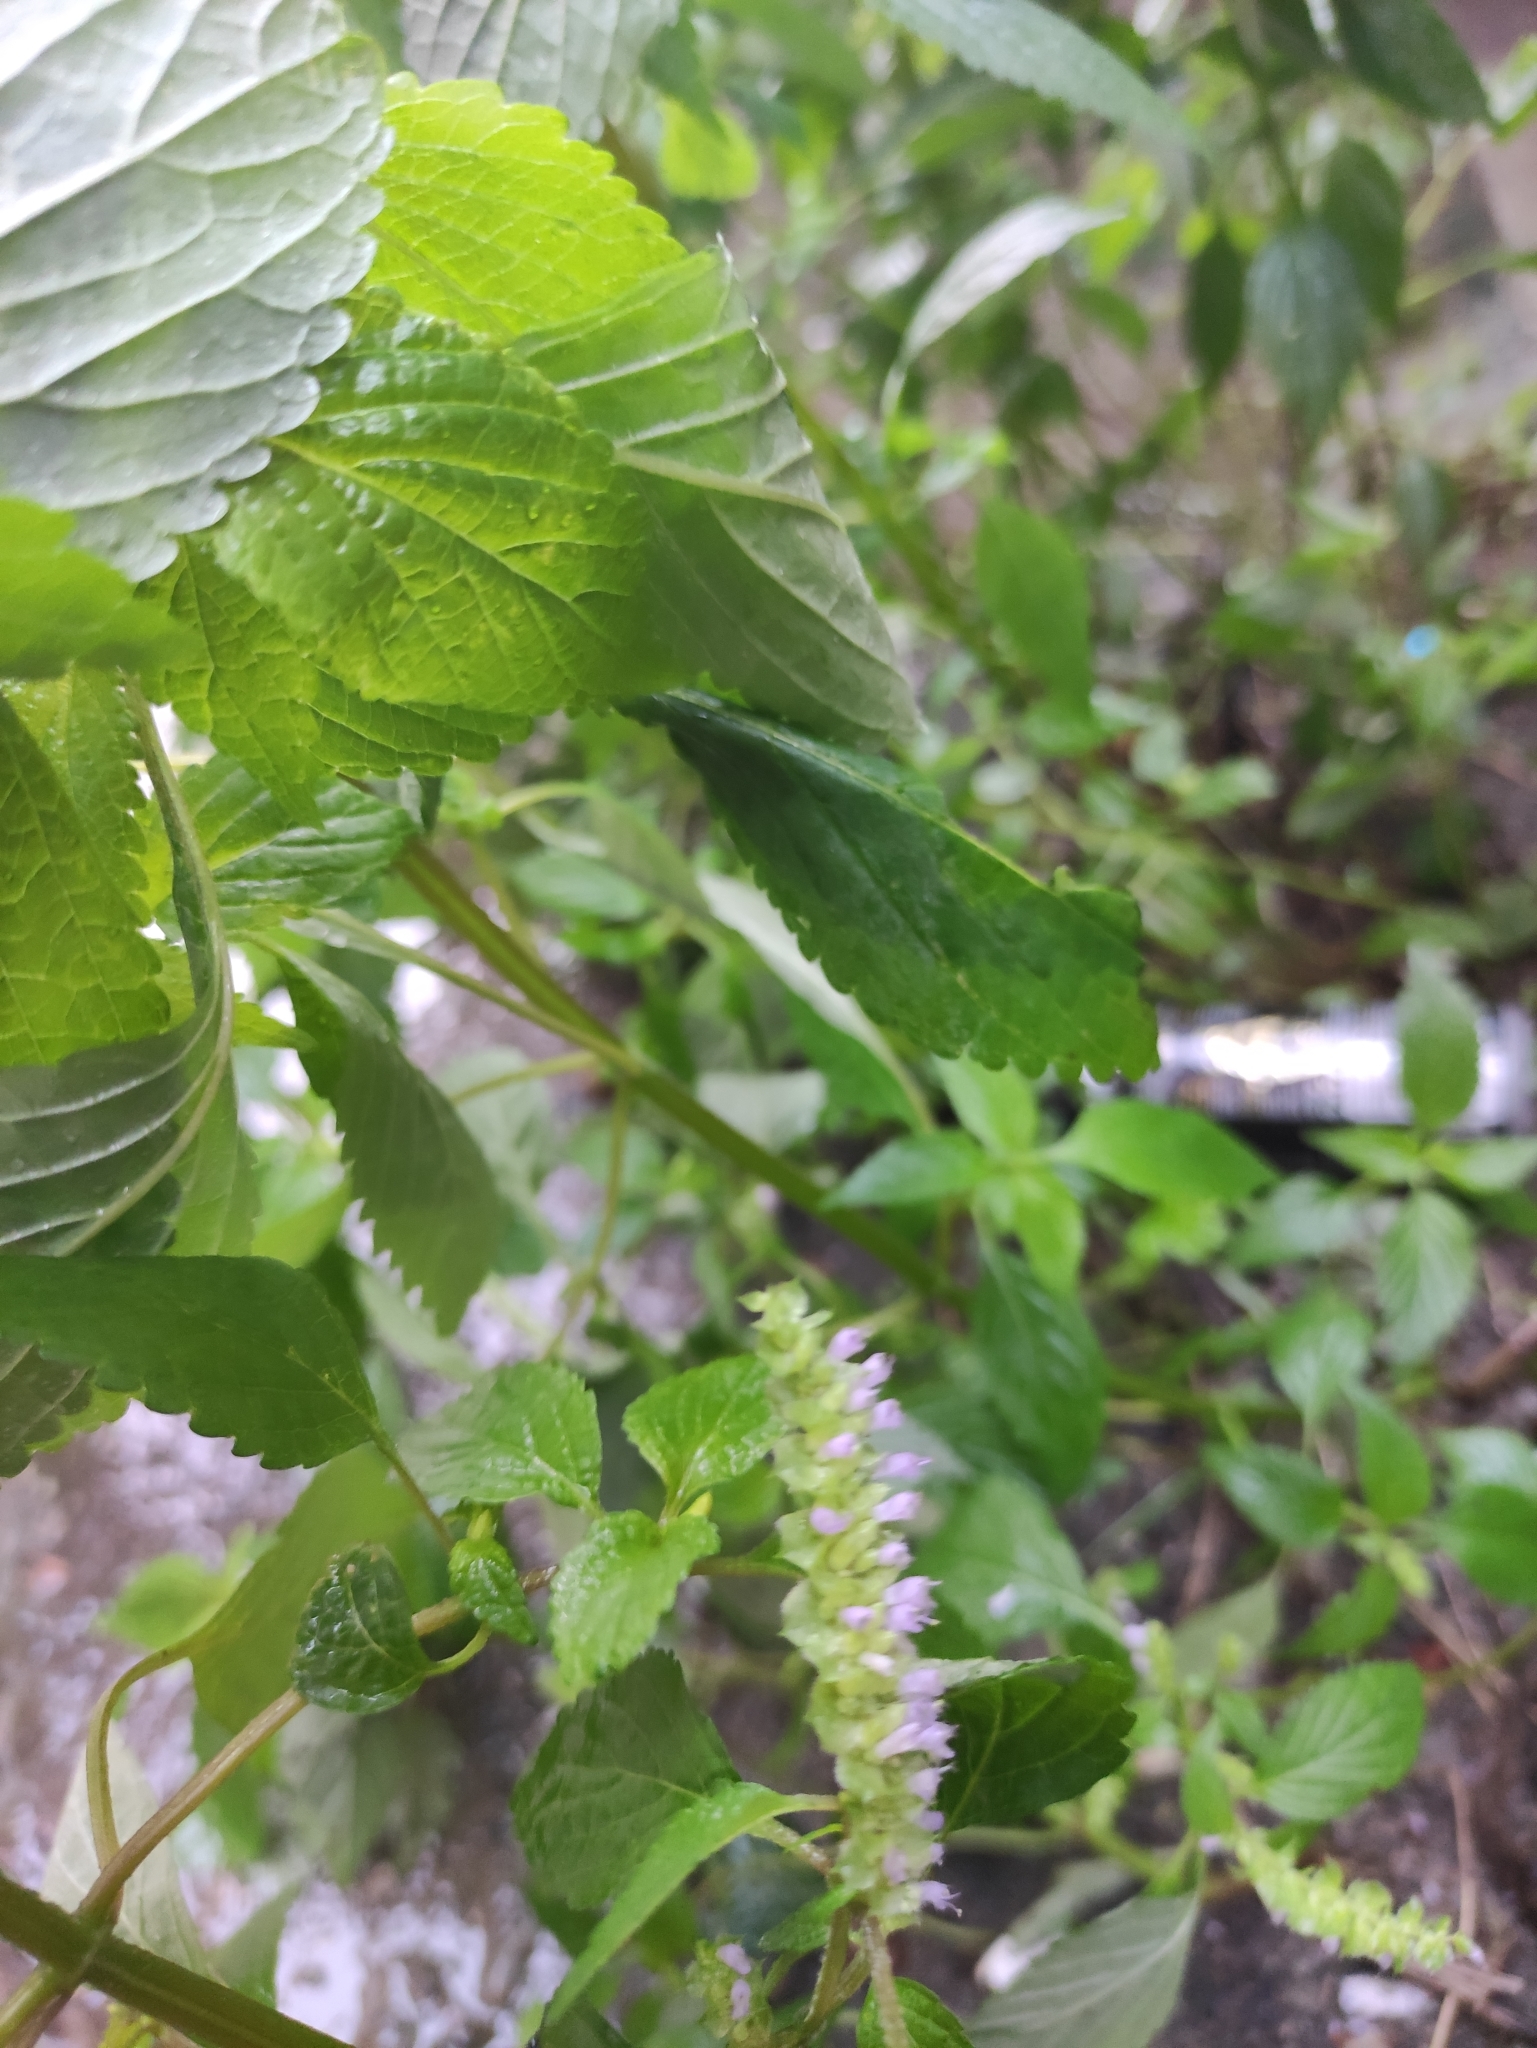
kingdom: Plantae
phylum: Tracheophyta
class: Magnoliopsida
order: Lamiales
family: Lamiaceae
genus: Elsholtzia
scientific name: Elsholtzia ciliata
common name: Ciliate elsholtzia
